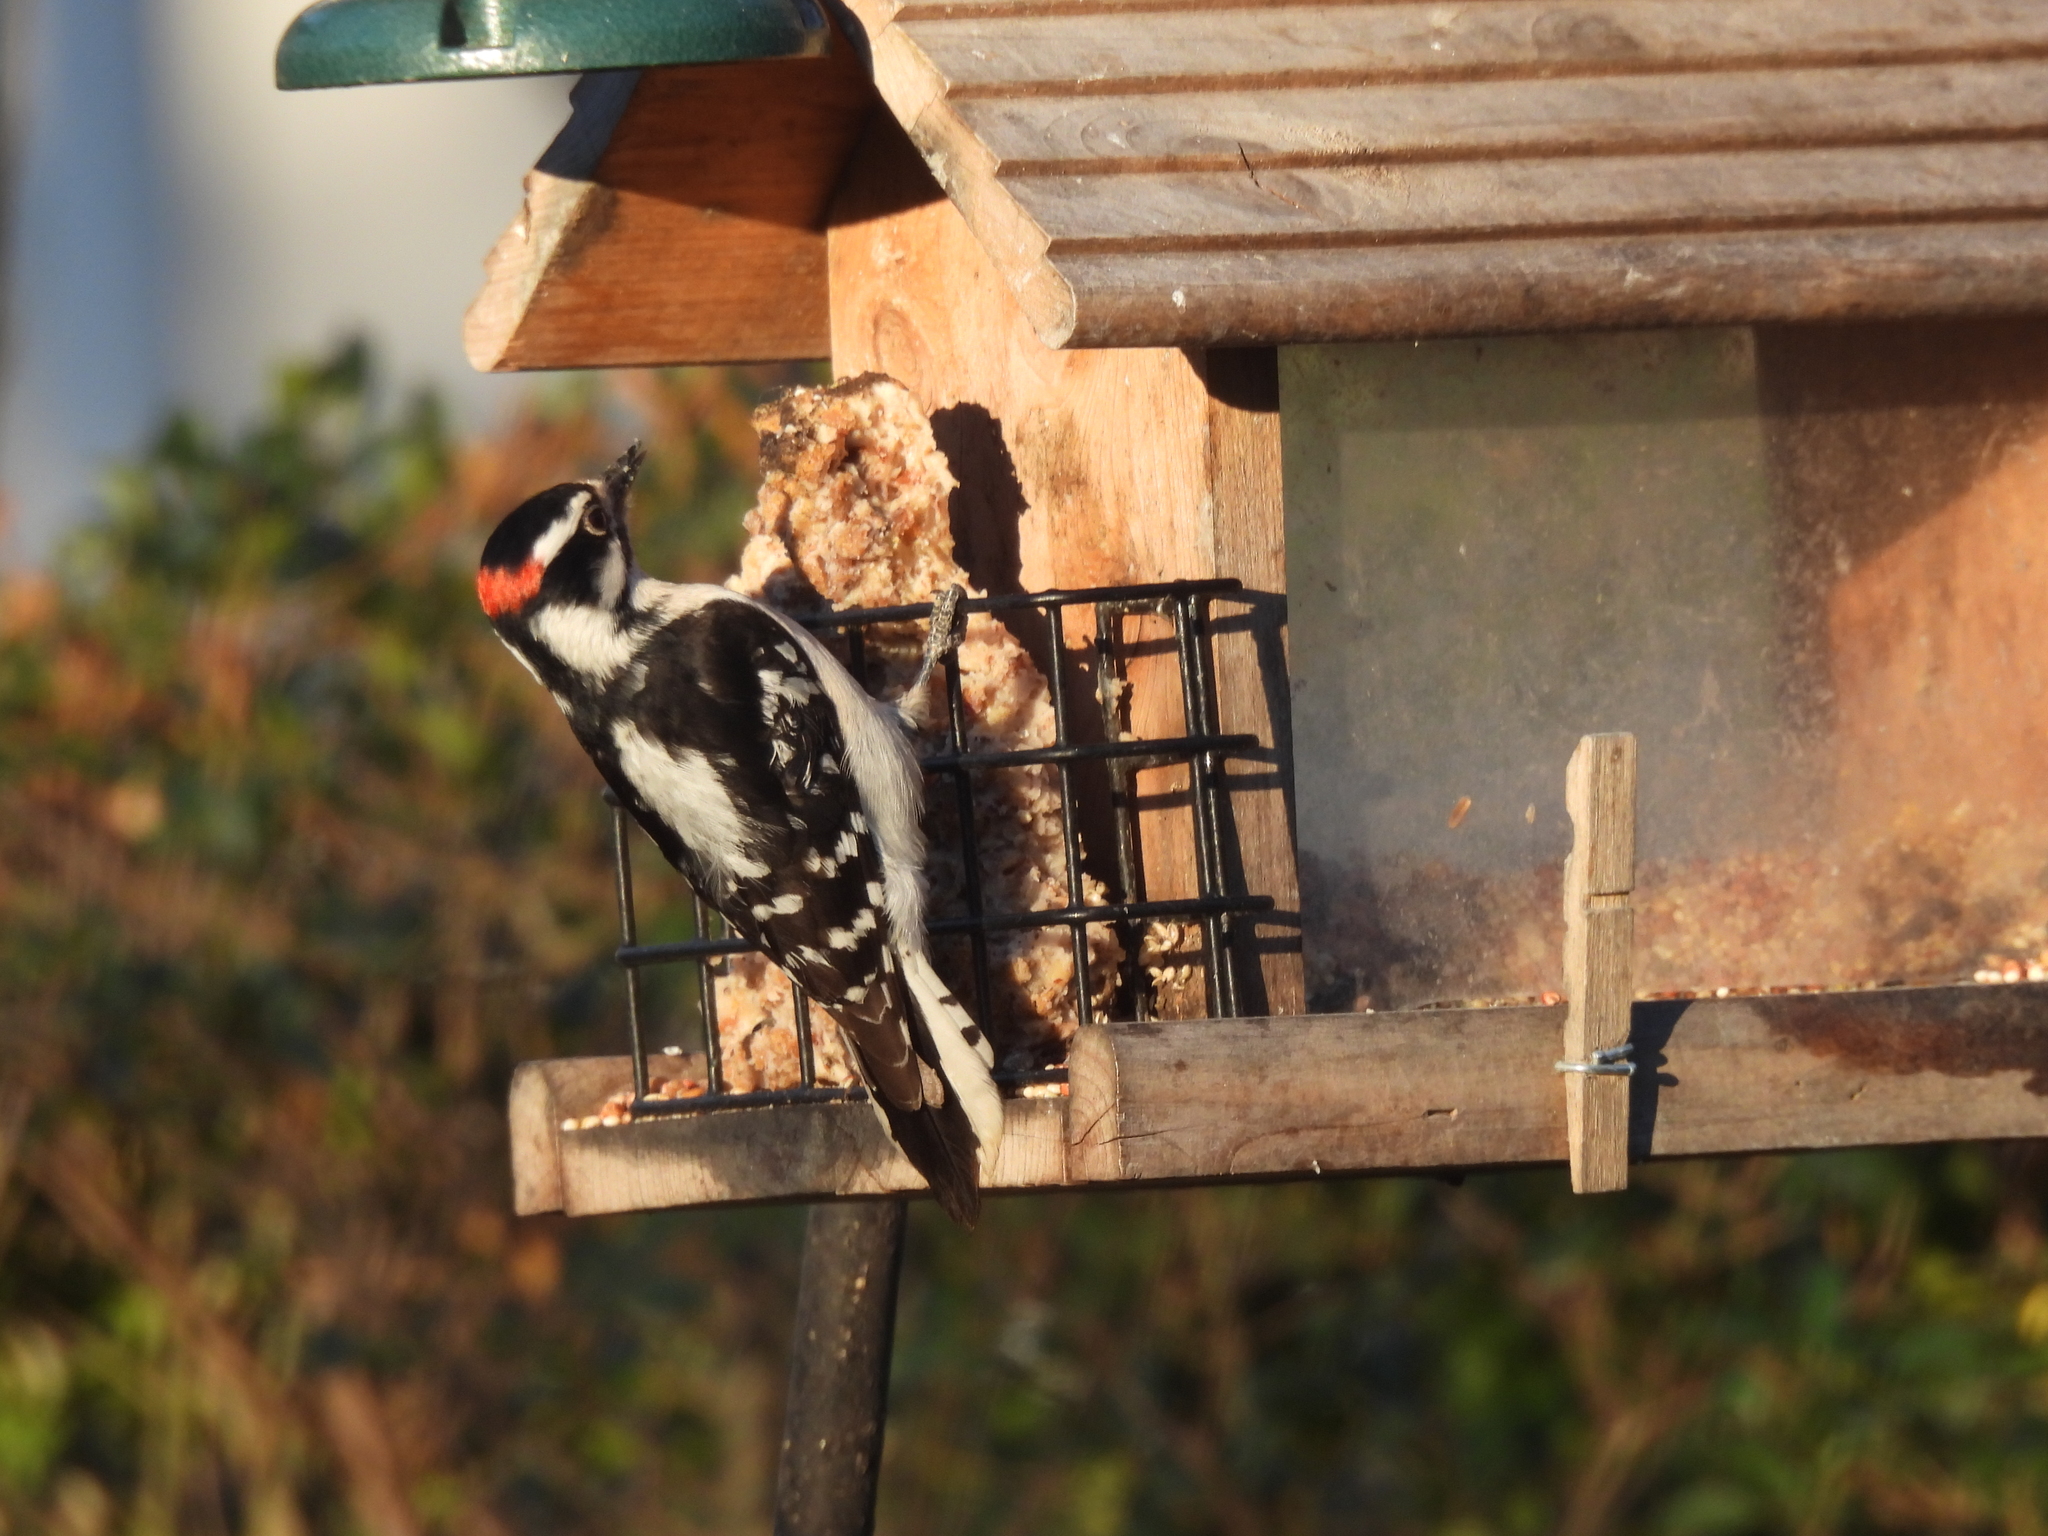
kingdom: Animalia
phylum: Chordata
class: Aves
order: Piciformes
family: Picidae
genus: Dryobates
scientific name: Dryobates pubescens
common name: Downy woodpecker
